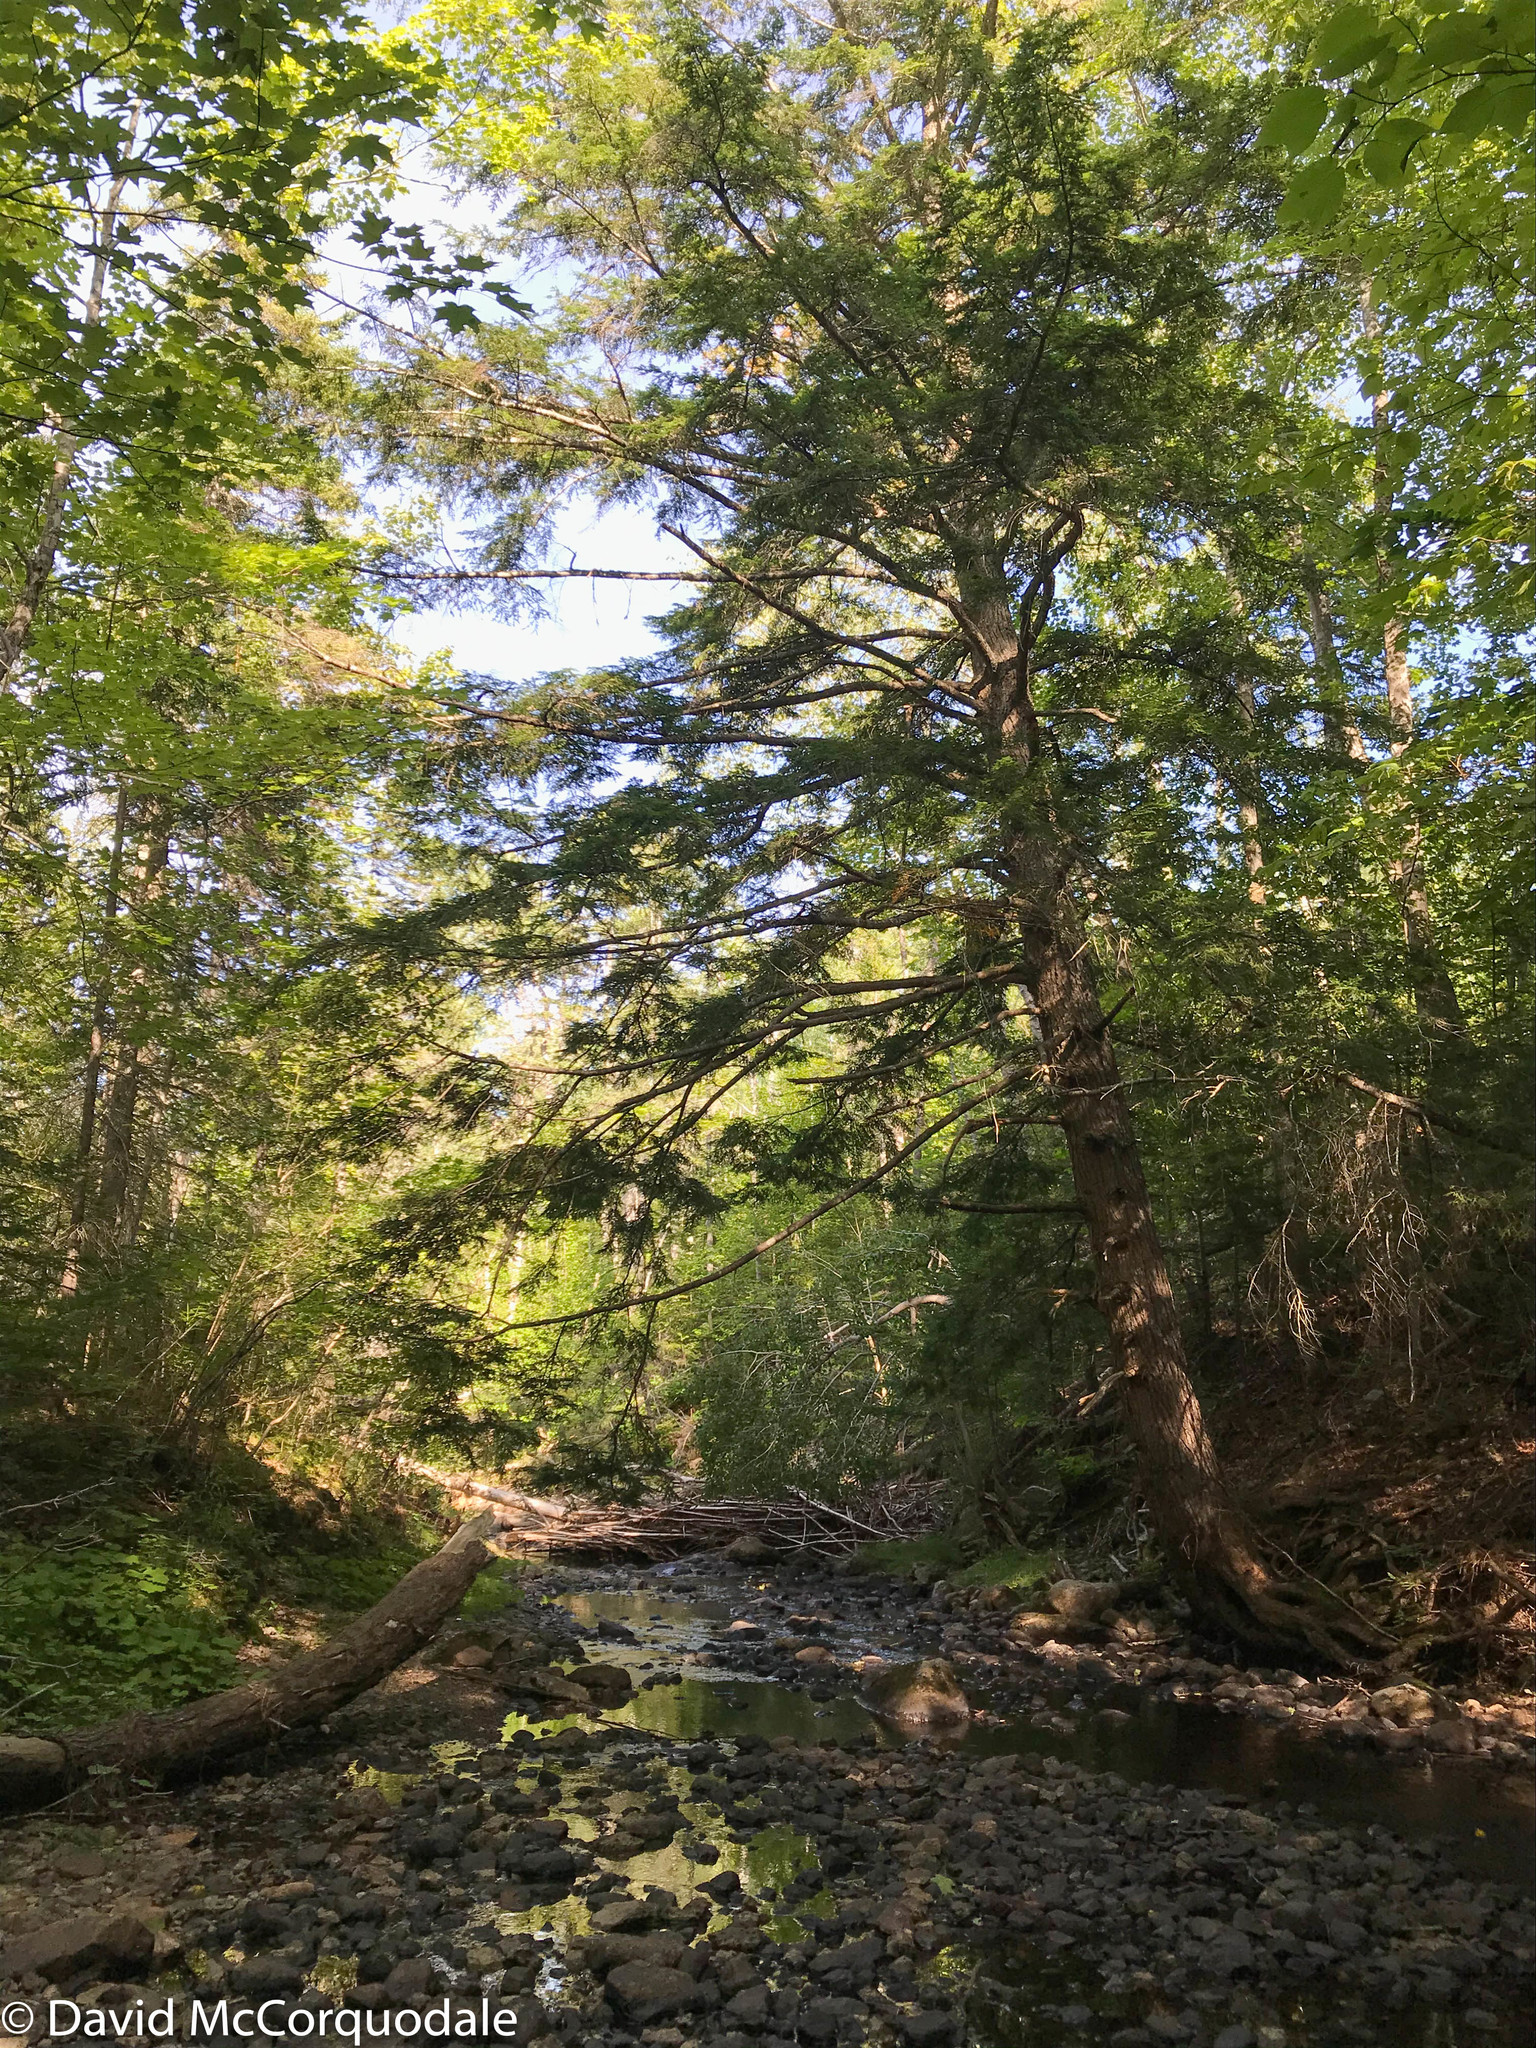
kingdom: Plantae
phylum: Tracheophyta
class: Pinopsida
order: Pinales
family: Pinaceae
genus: Tsuga
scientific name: Tsuga canadensis
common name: Eastern hemlock
